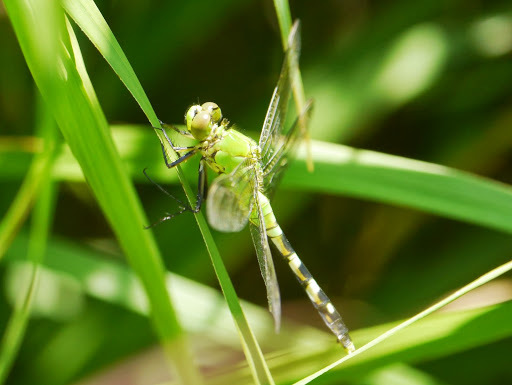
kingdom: Animalia
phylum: Arthropoda
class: Insecta
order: Odonata
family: Libellulidae
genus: Erythemis
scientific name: Erythemis simplicicollis
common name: Eastern pondhawk
